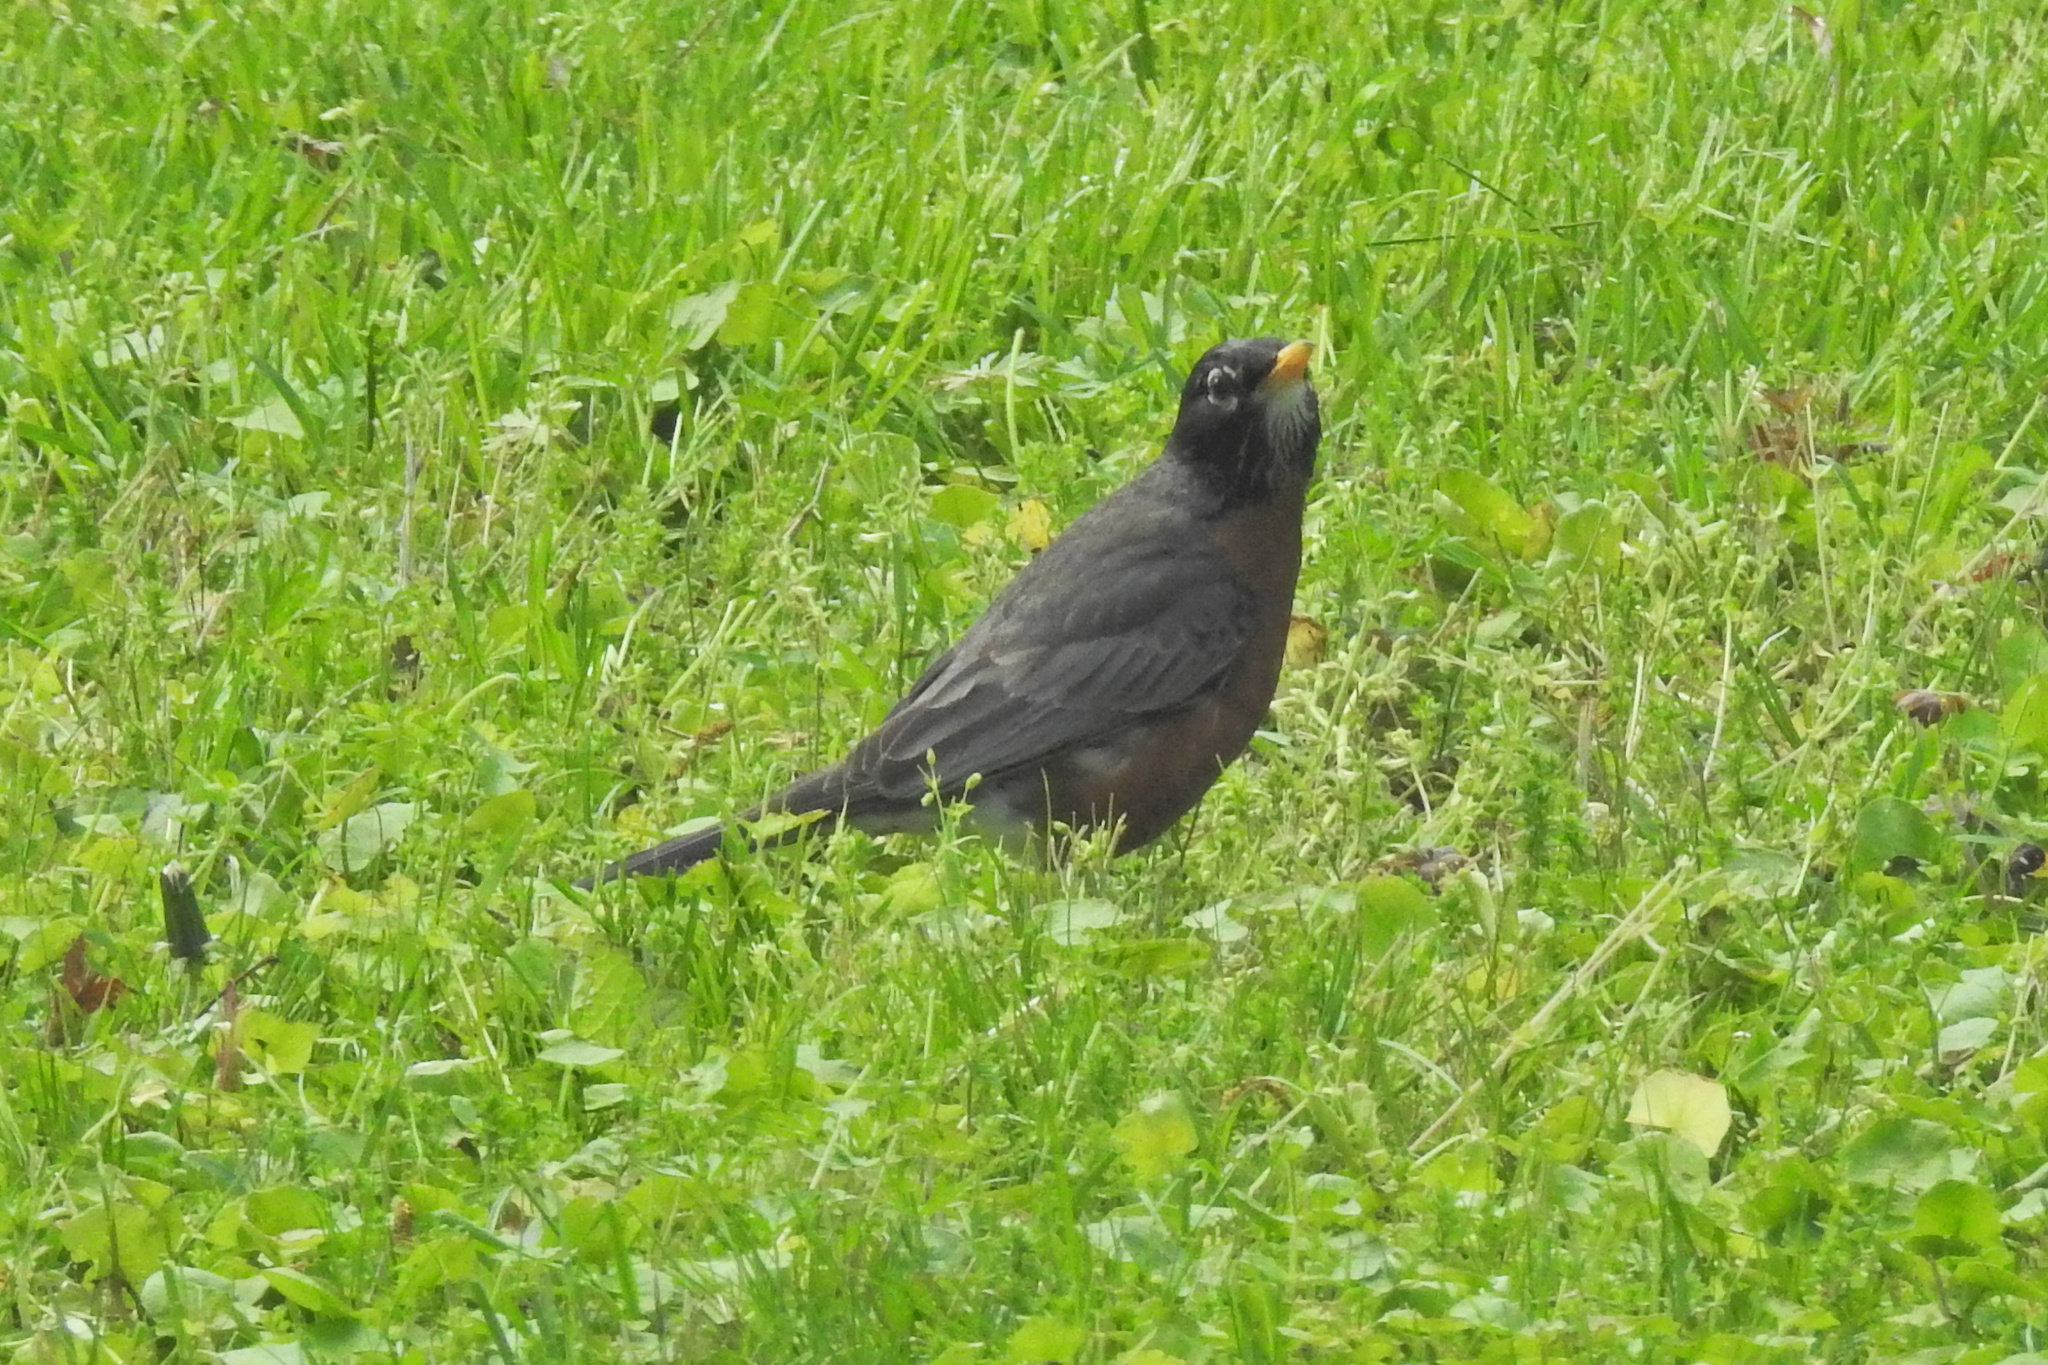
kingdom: Animalia
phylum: Chordata
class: Aves
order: Passeriformes
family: Turdidae
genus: Turdus
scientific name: Turdus migratorius
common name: American robin
